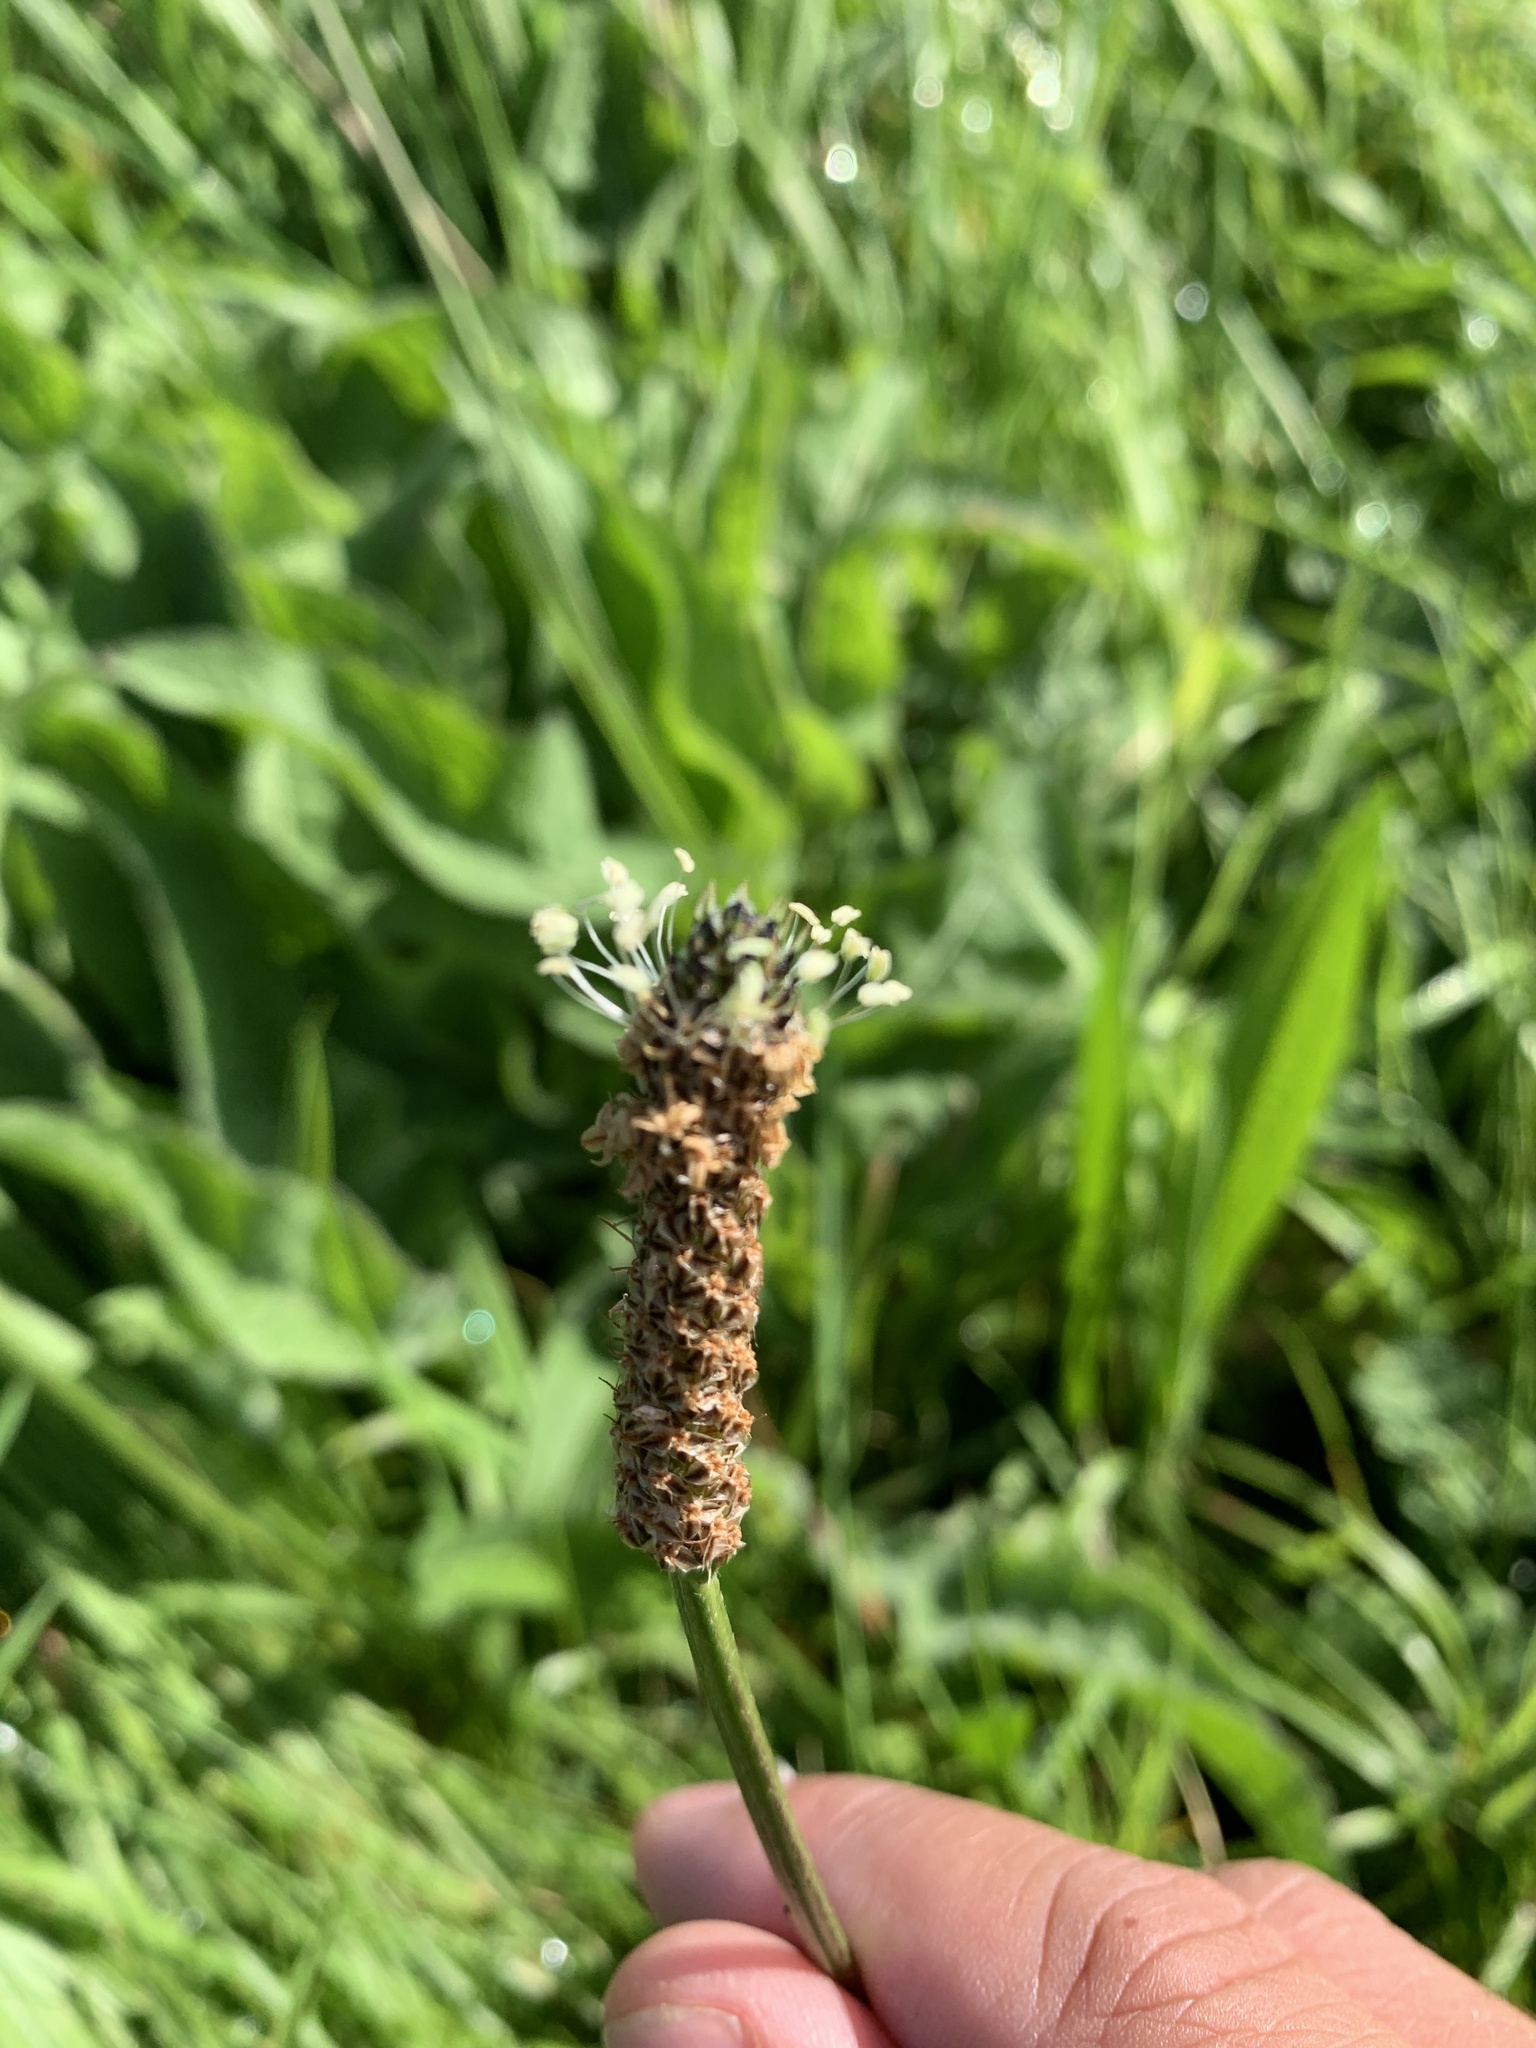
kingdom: Plantae
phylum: Tracheophyta
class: Magnoliopsida
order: Lamiales
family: Plantaginaceae
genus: Plantago
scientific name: Plantago lanceolata
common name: Ribwort plantain
